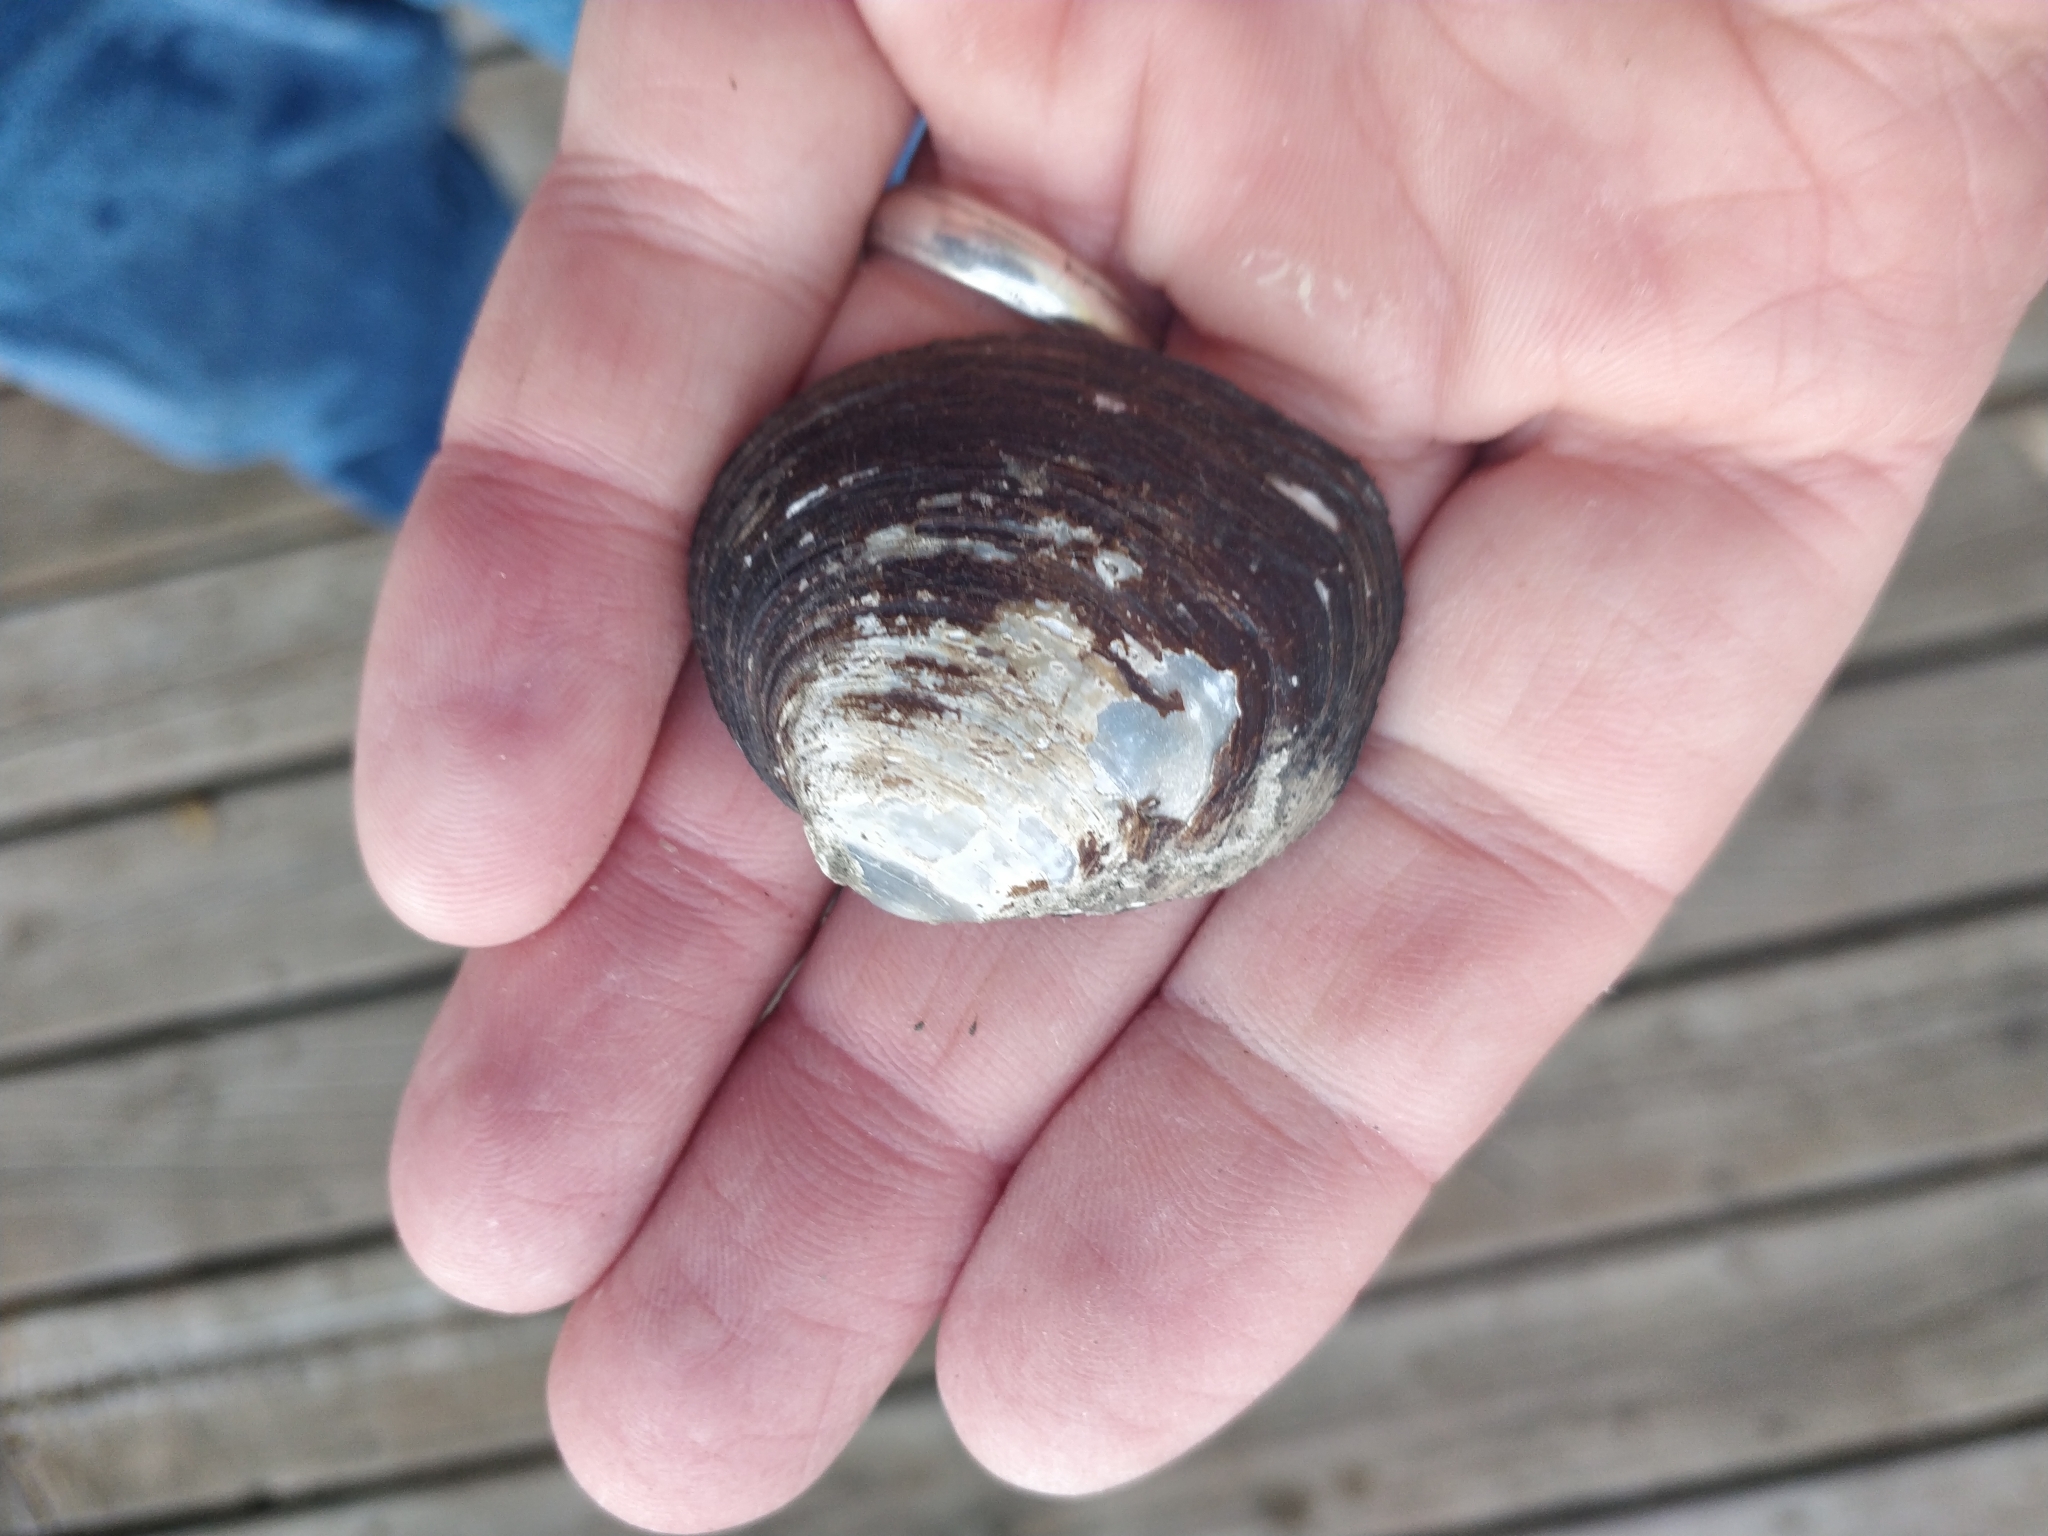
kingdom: Animalia
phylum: Mollusca
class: Bivalvia
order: Unionida
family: Unionidae
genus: Cyclonaias
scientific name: Cyclonaias pustulosa
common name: Pimpleback
